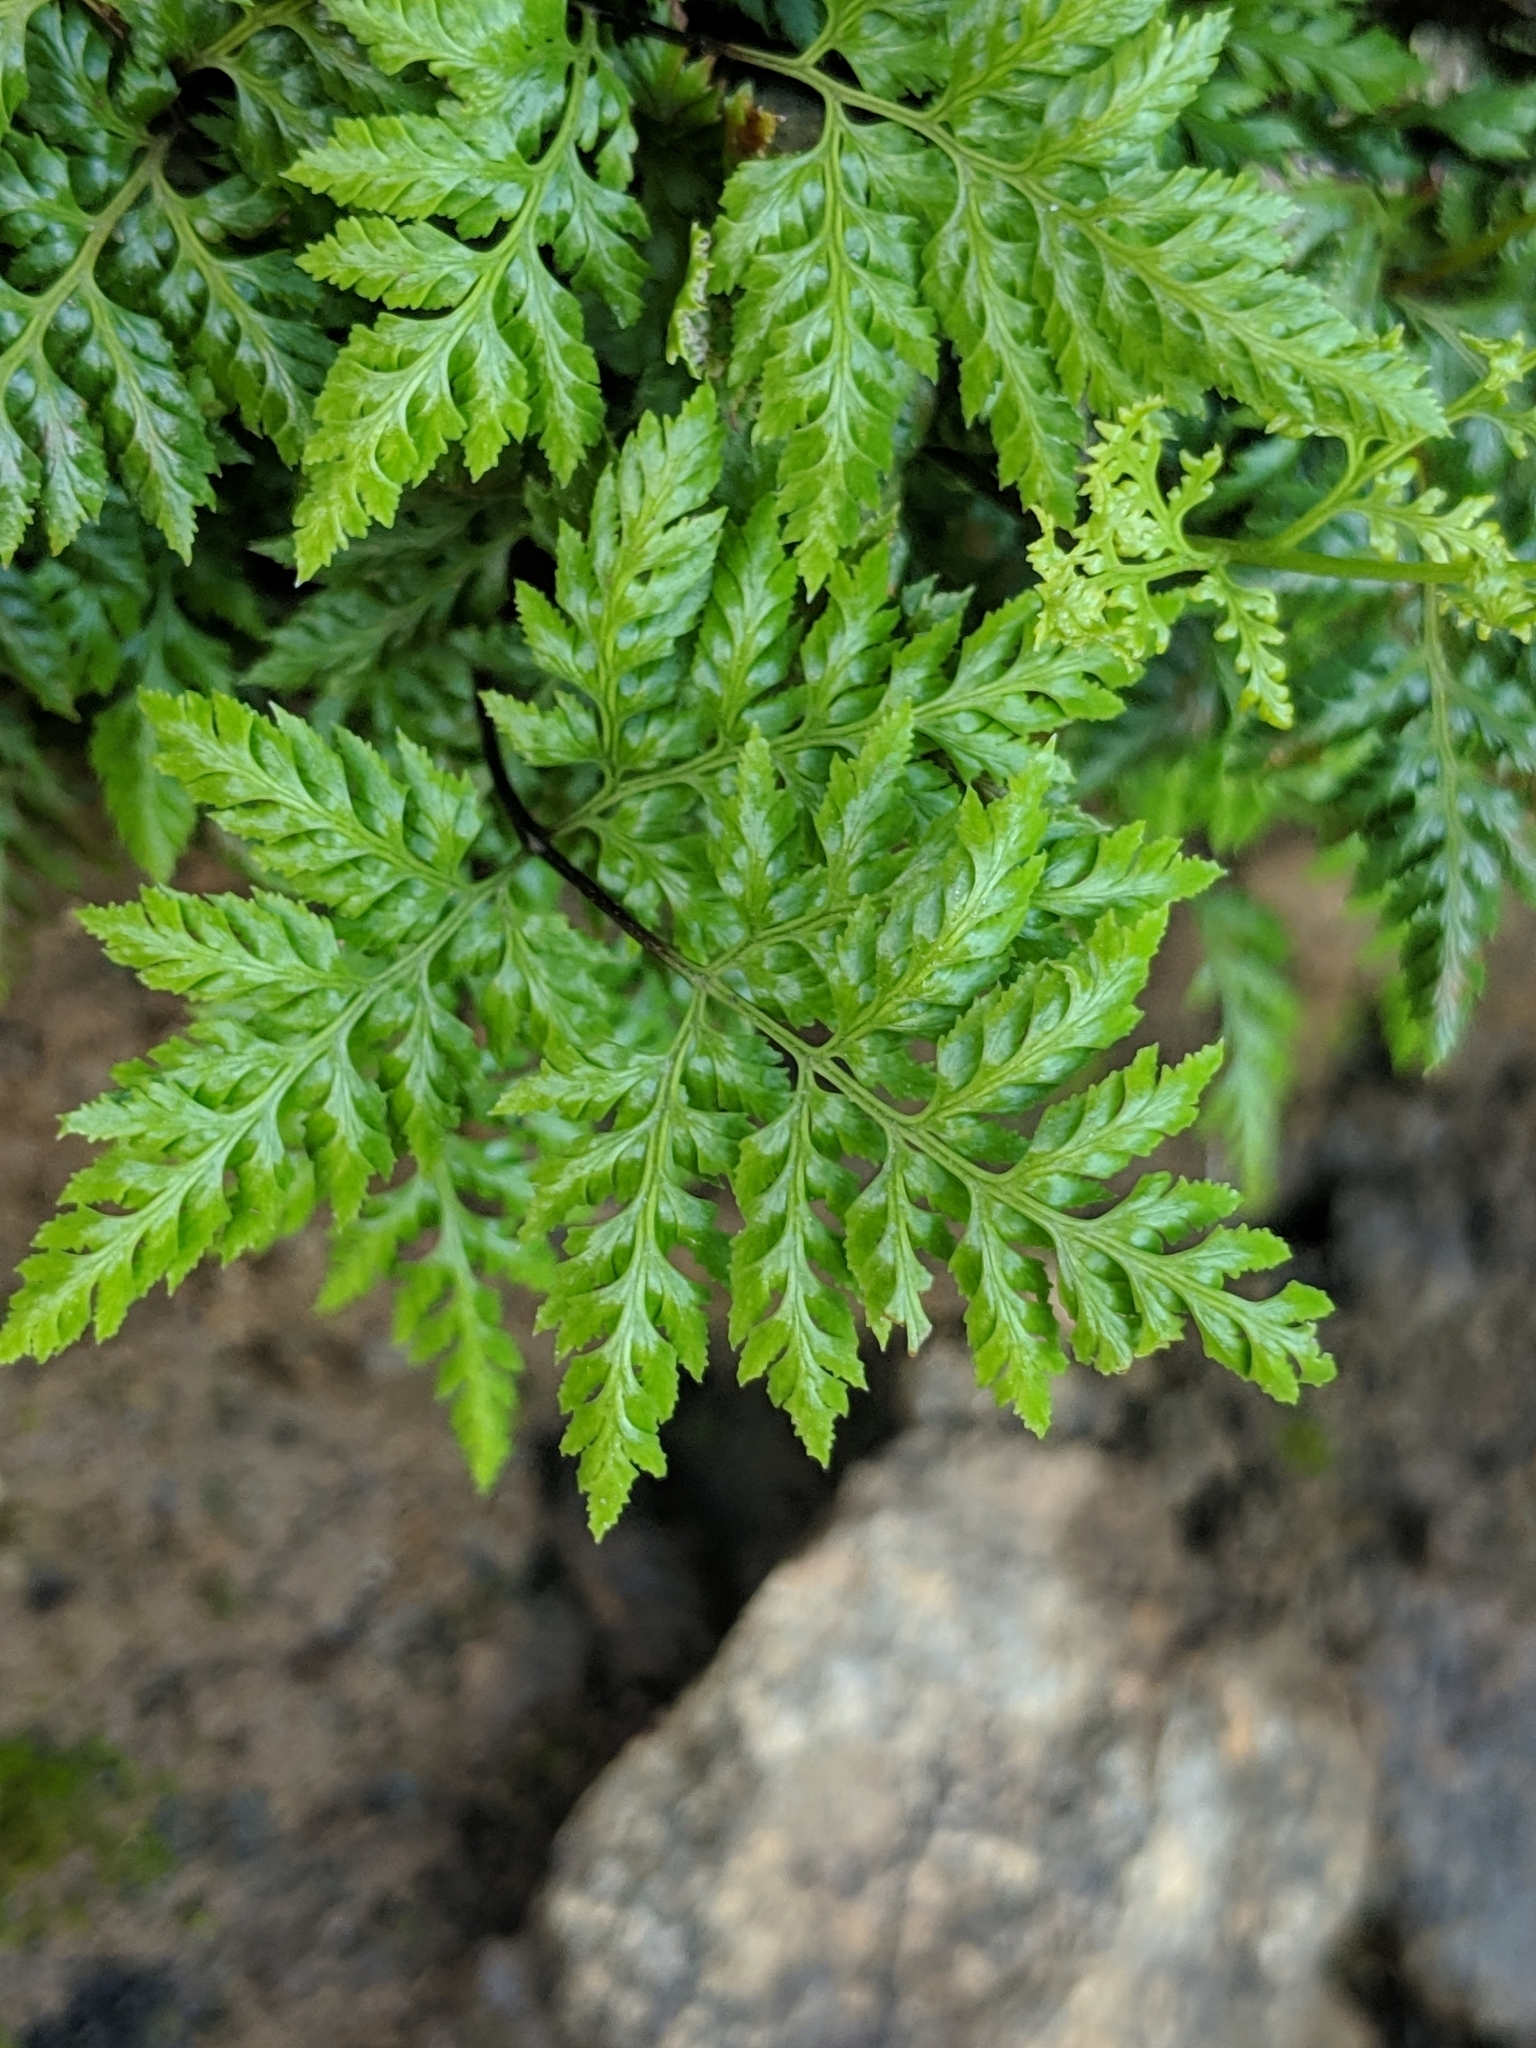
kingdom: Plantae
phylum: Tracheophyta
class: Polypodiopsida
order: Polypodiales
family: Pteridaceae
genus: Aspidotis
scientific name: Aspidotis californica
